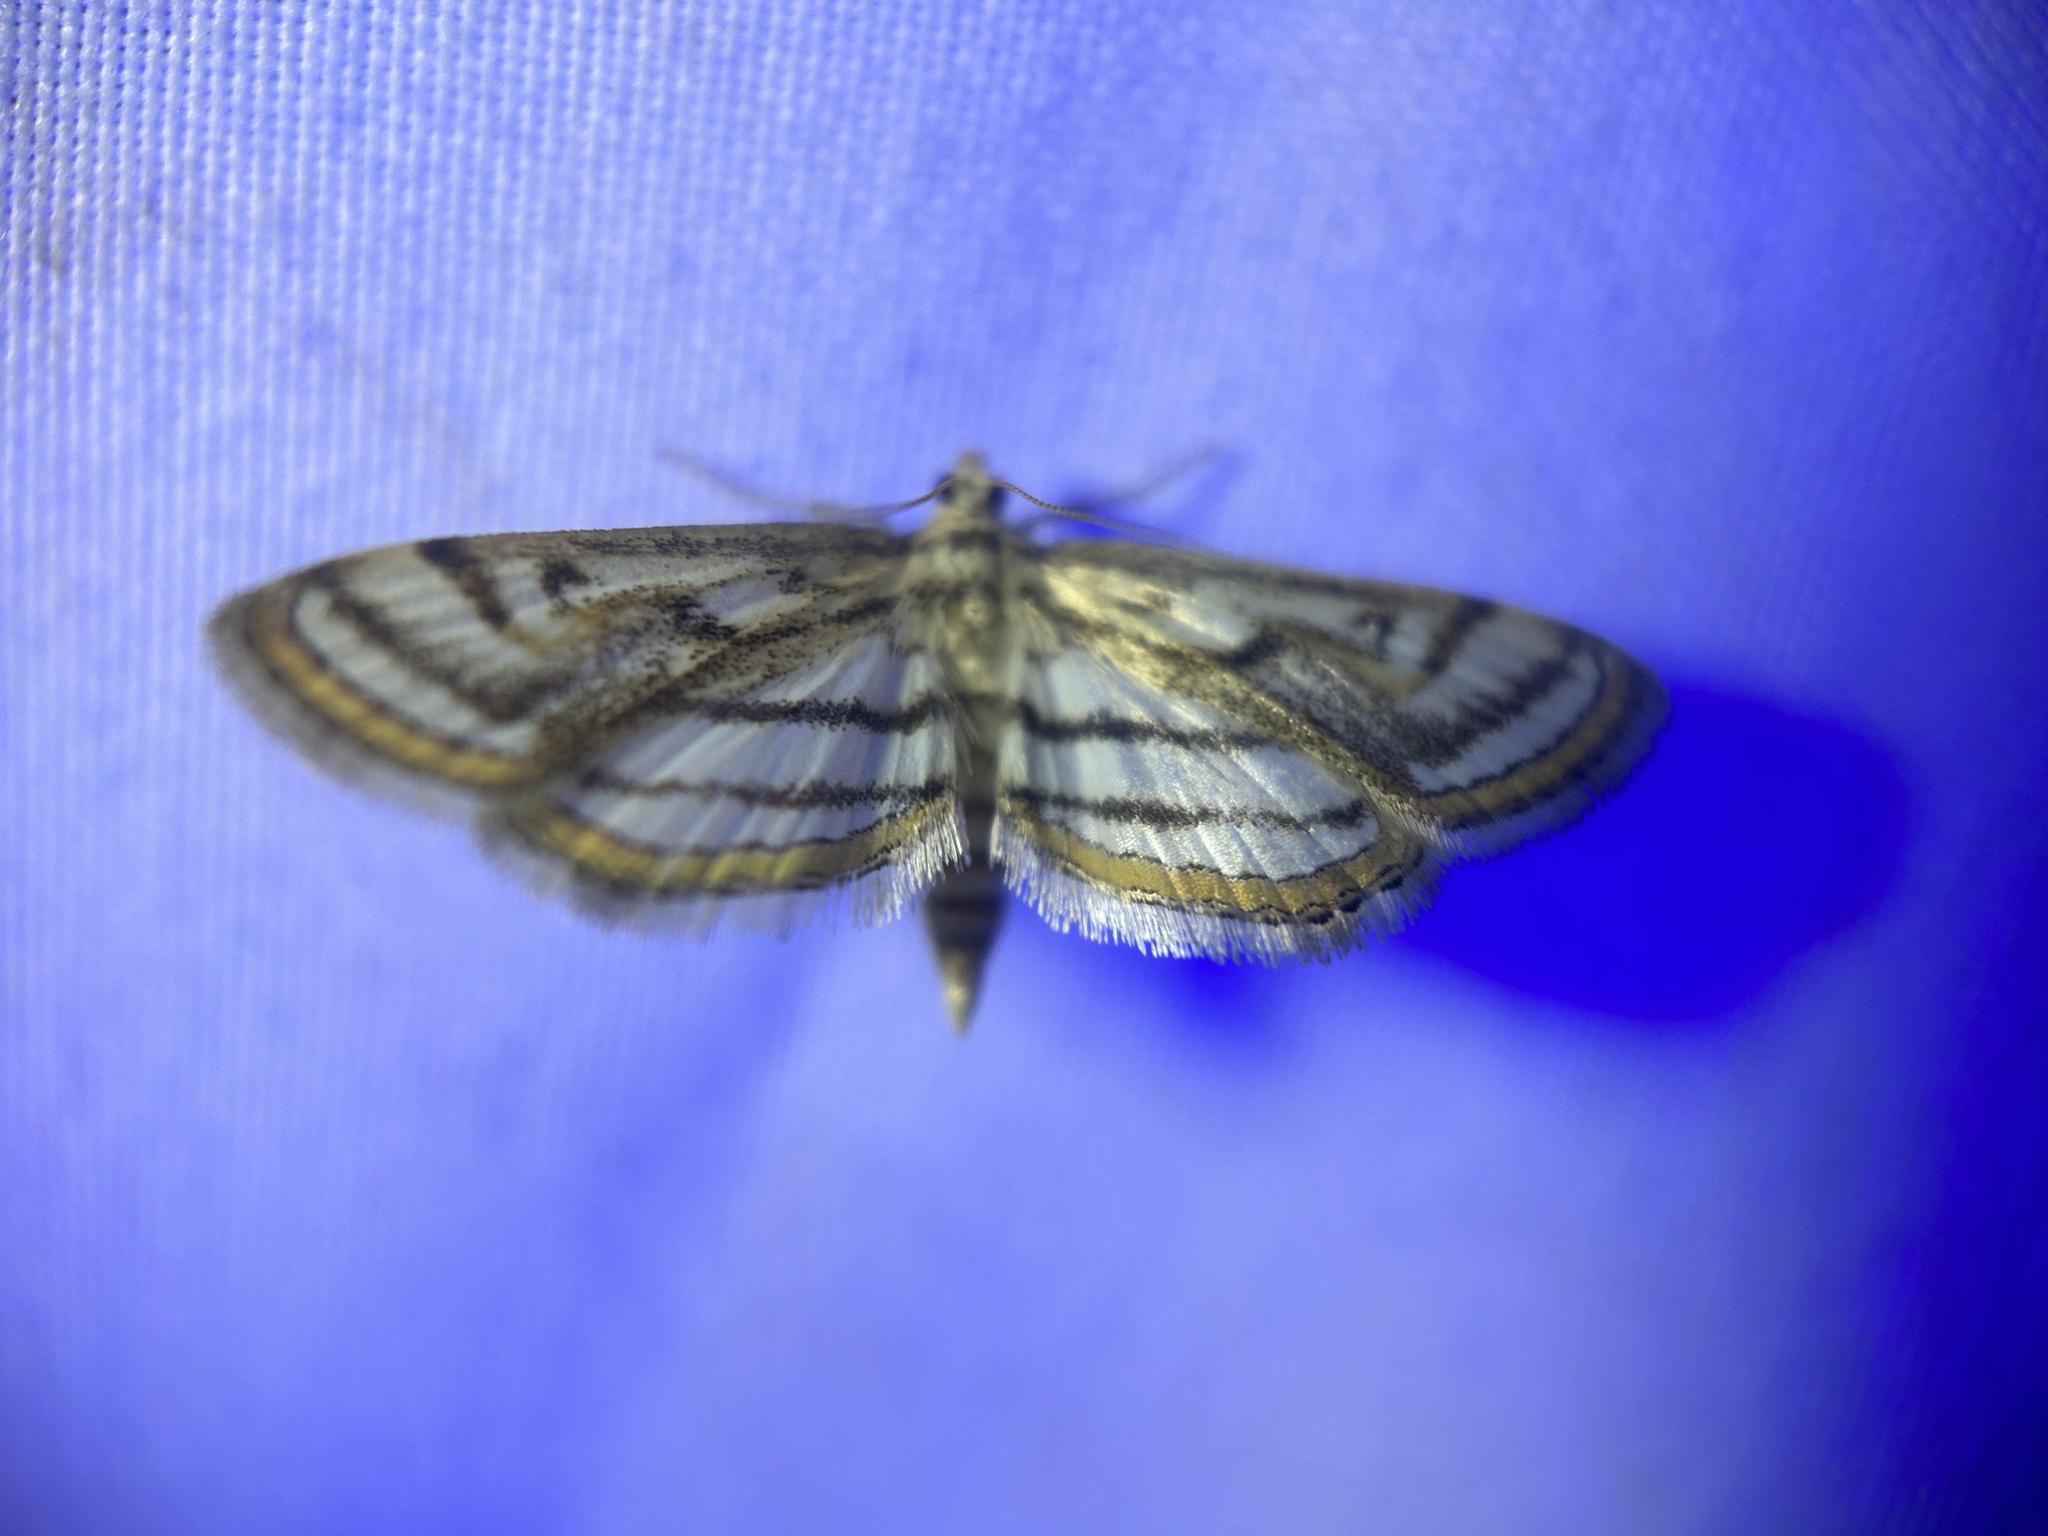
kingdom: Animalia
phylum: Arthropoda
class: Insecta
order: Lepidoptera
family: Crambidae
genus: Parapoynx
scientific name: Parapoynx badiusalis
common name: Chestnut-marked pondweed moth
